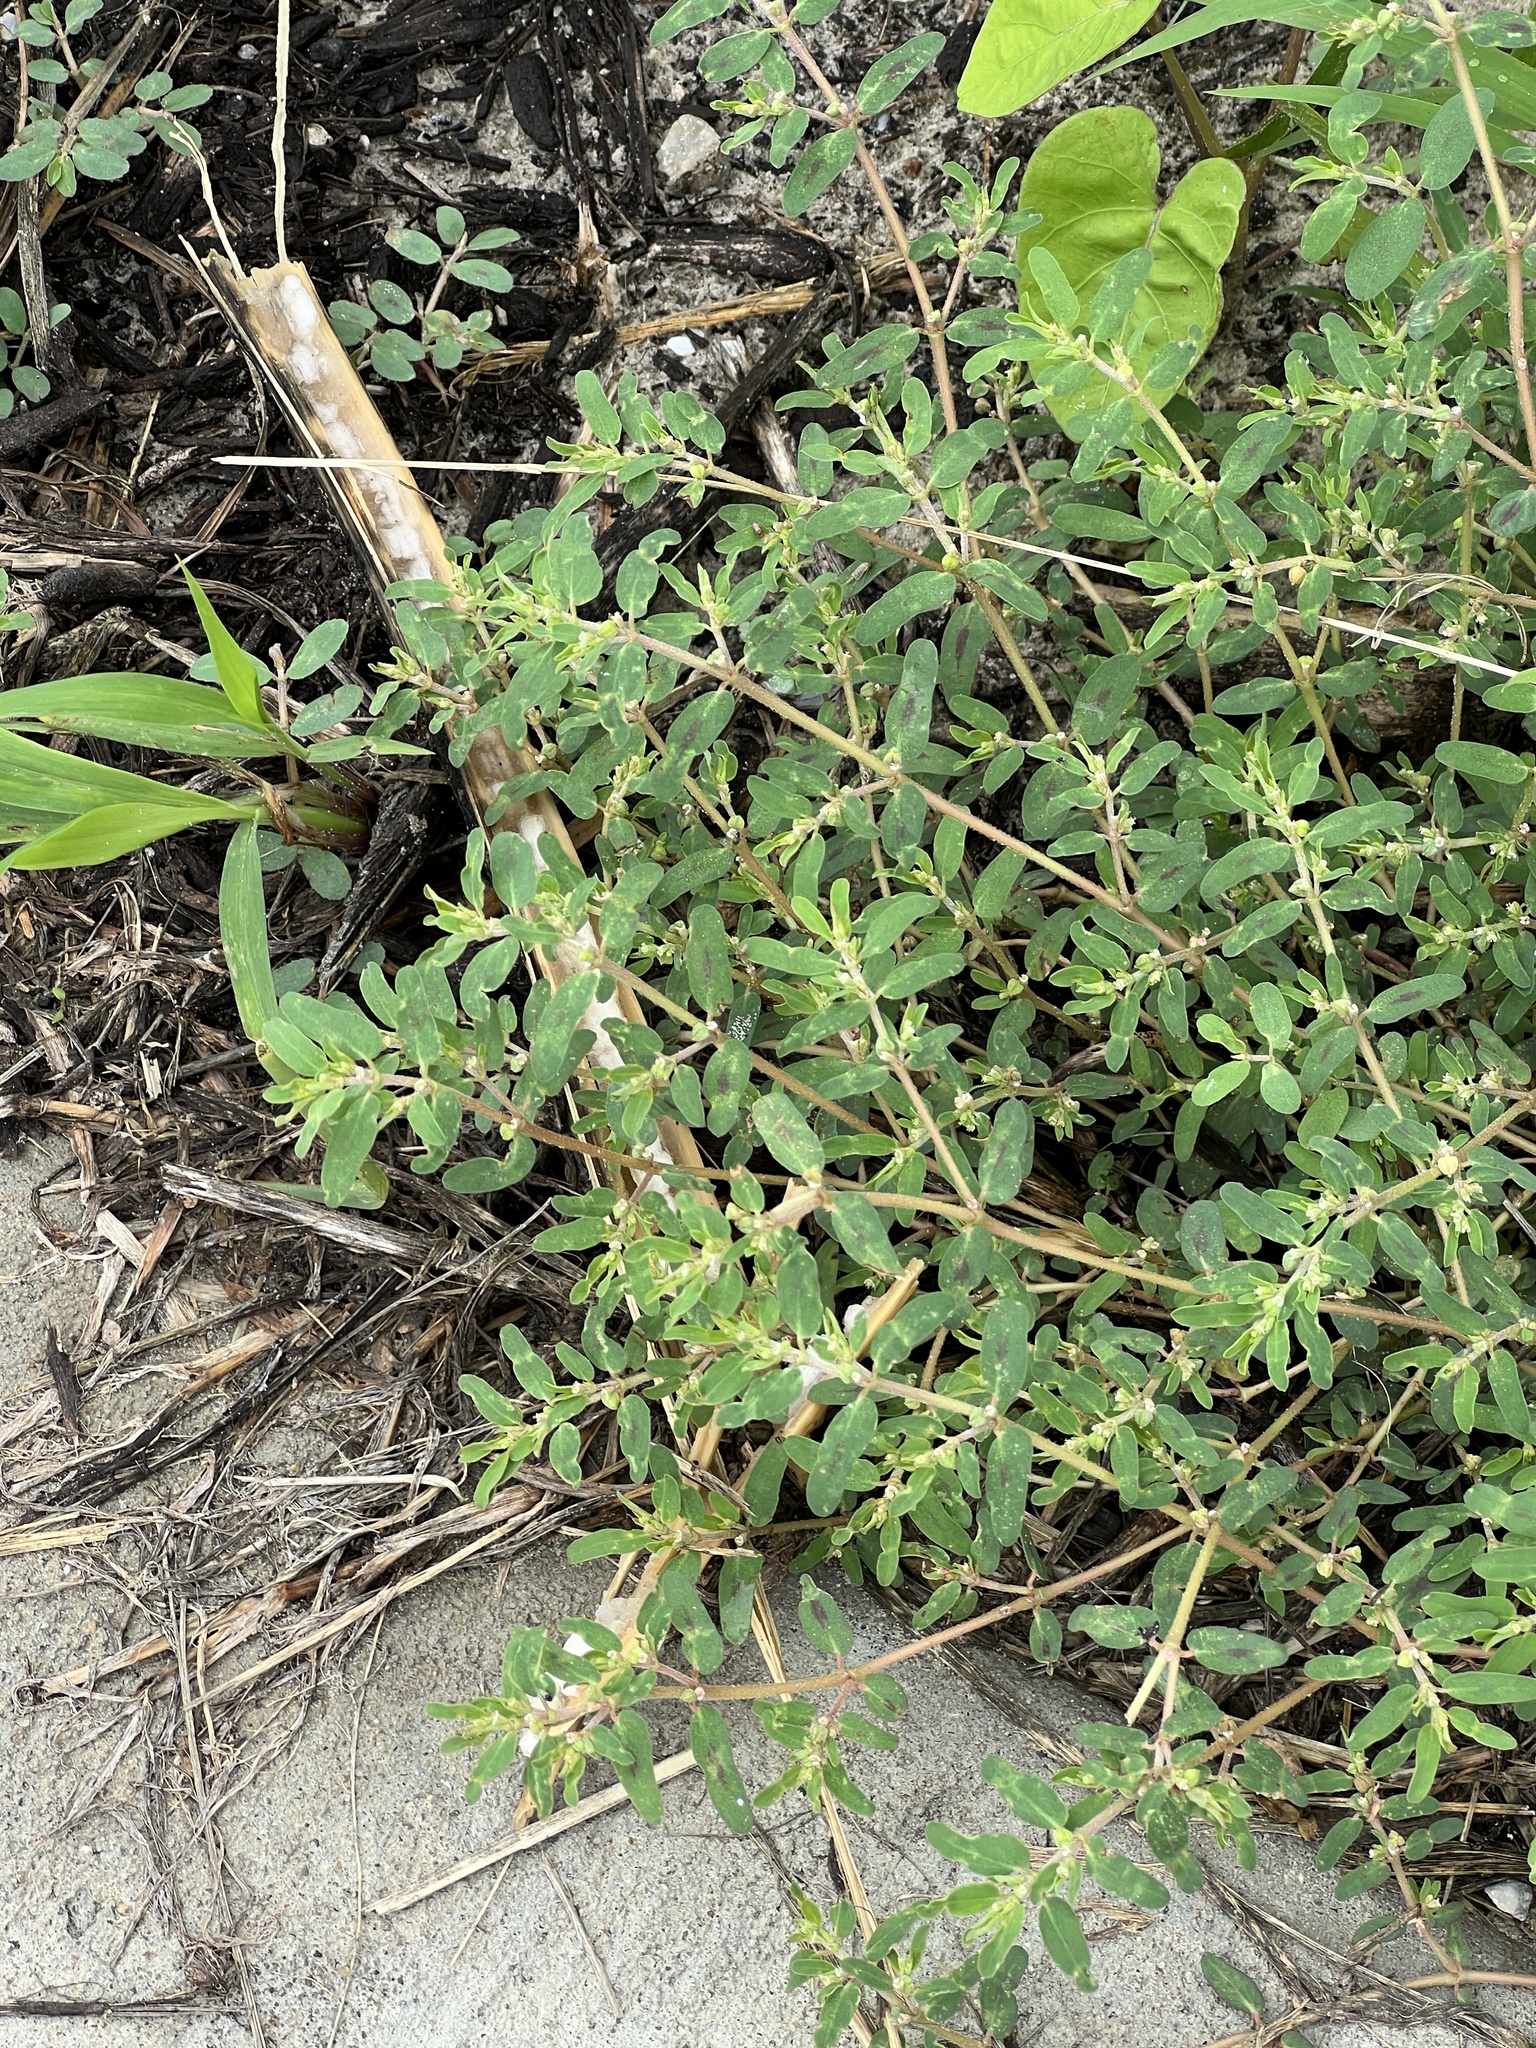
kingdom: Plantae
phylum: Tracheophyta
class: Magnoliopsida
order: Malpighiales
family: Euphorbiaceae
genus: Euphorbia
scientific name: Euphorbia maculata
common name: Spotted spurge
